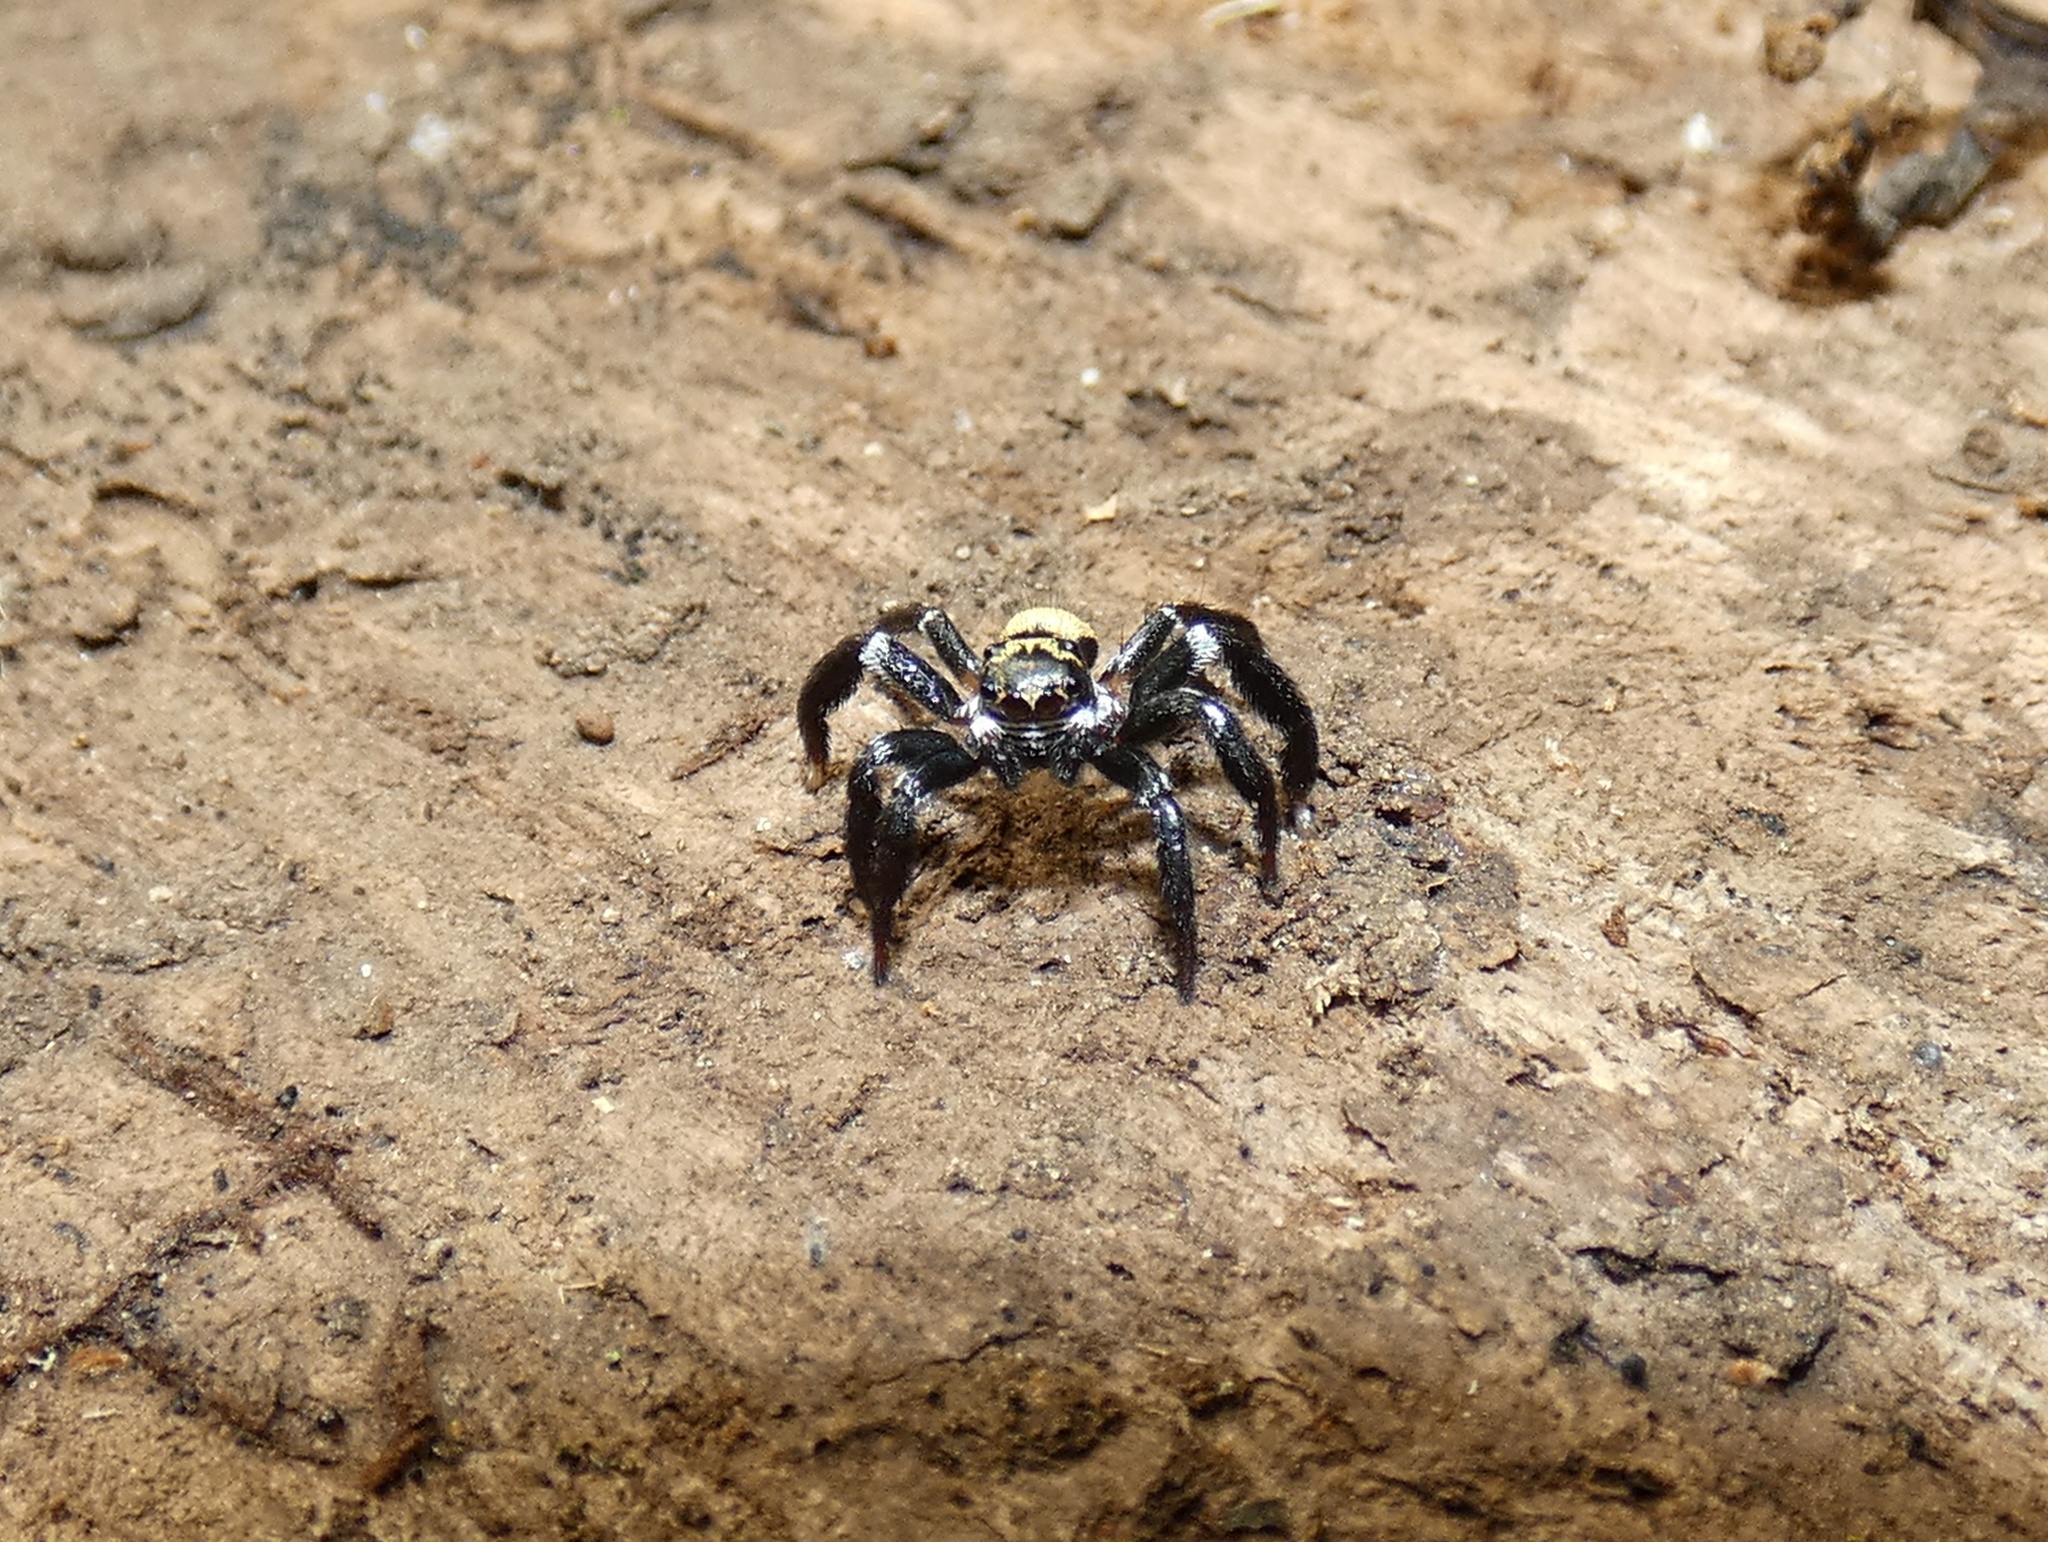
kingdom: Animalia
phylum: Arthropoda
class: Arachnida
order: Araneae
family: Salticidae
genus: Corythalia
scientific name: Corythalia bicincta
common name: Jumping spiders
